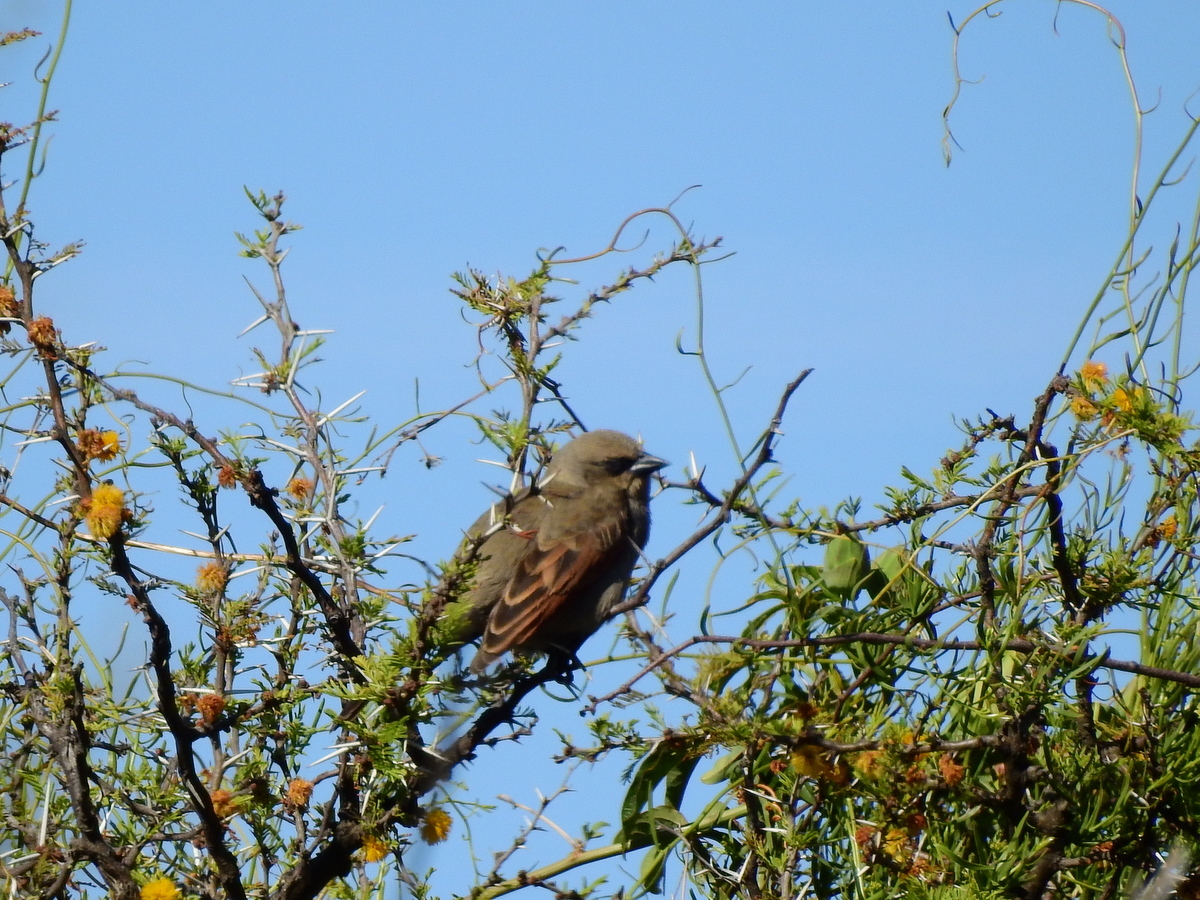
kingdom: Animalia
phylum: Chordata
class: Aves
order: Passeriformes
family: Icteridae
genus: Agelaioides
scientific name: Agelaioides badius
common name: Baywing
